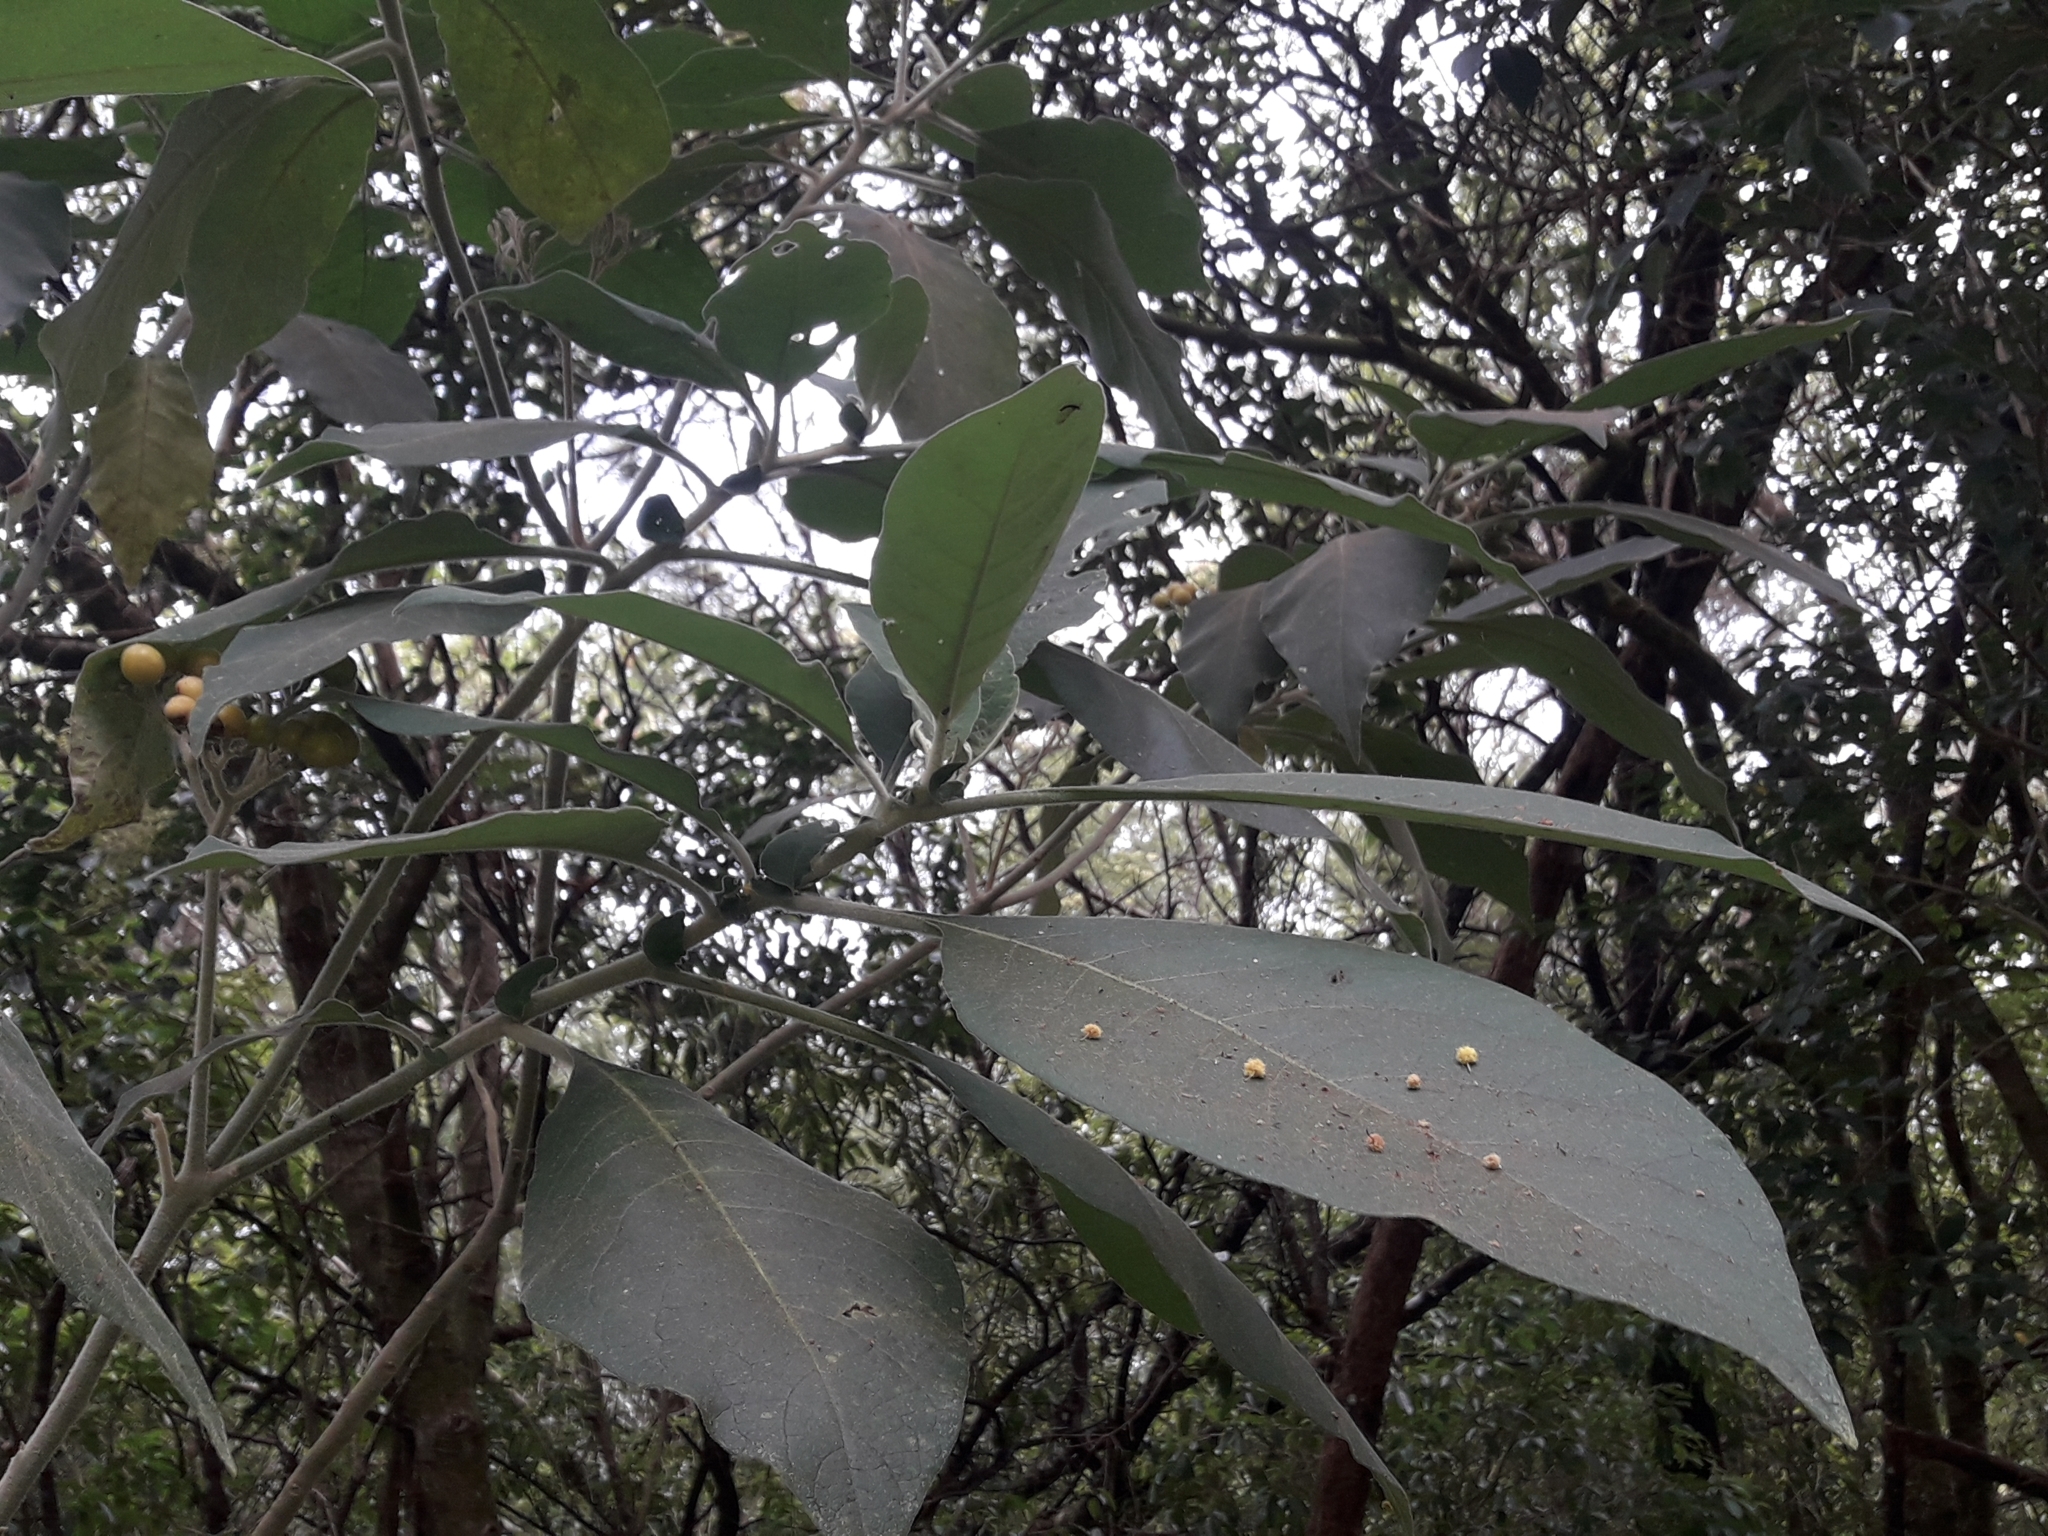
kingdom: Plantae
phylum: Tracheophyta
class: Magnoliopsida
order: Solanales
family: Solanaceae
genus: Solanum
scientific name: Solanum mauritianum
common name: Earleaf nightshade
